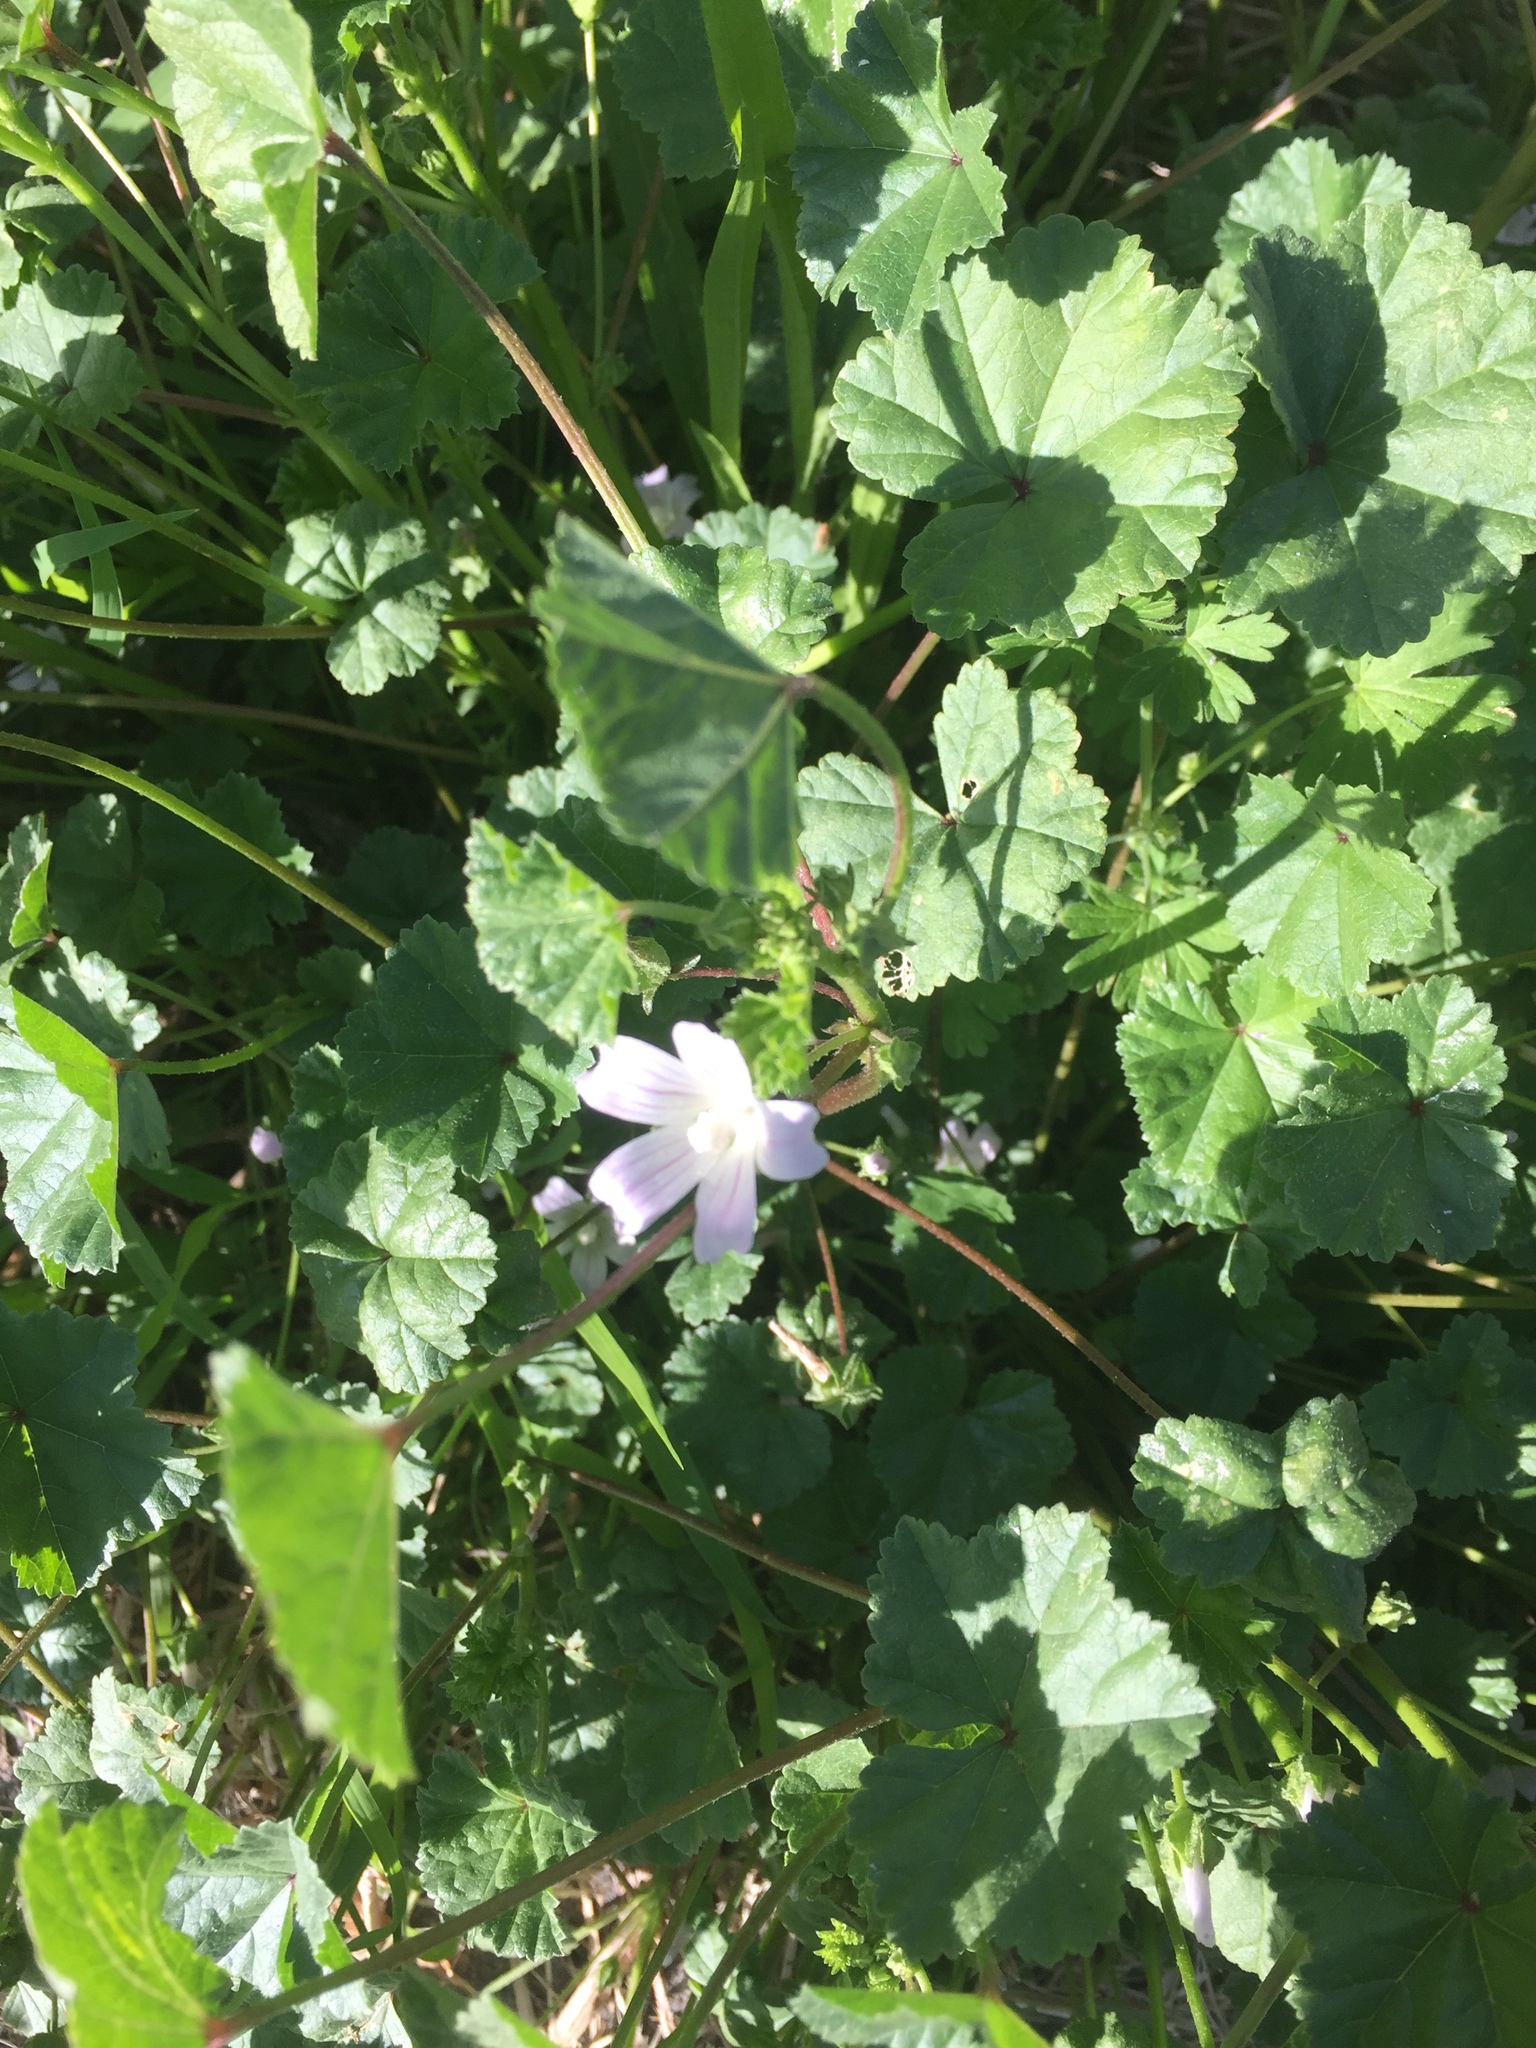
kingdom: Plantae
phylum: Tracheophyta
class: Magnoliopsida
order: Malvales
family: Malvaceae
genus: Malva
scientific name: Malva neglecta
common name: Common mallow
